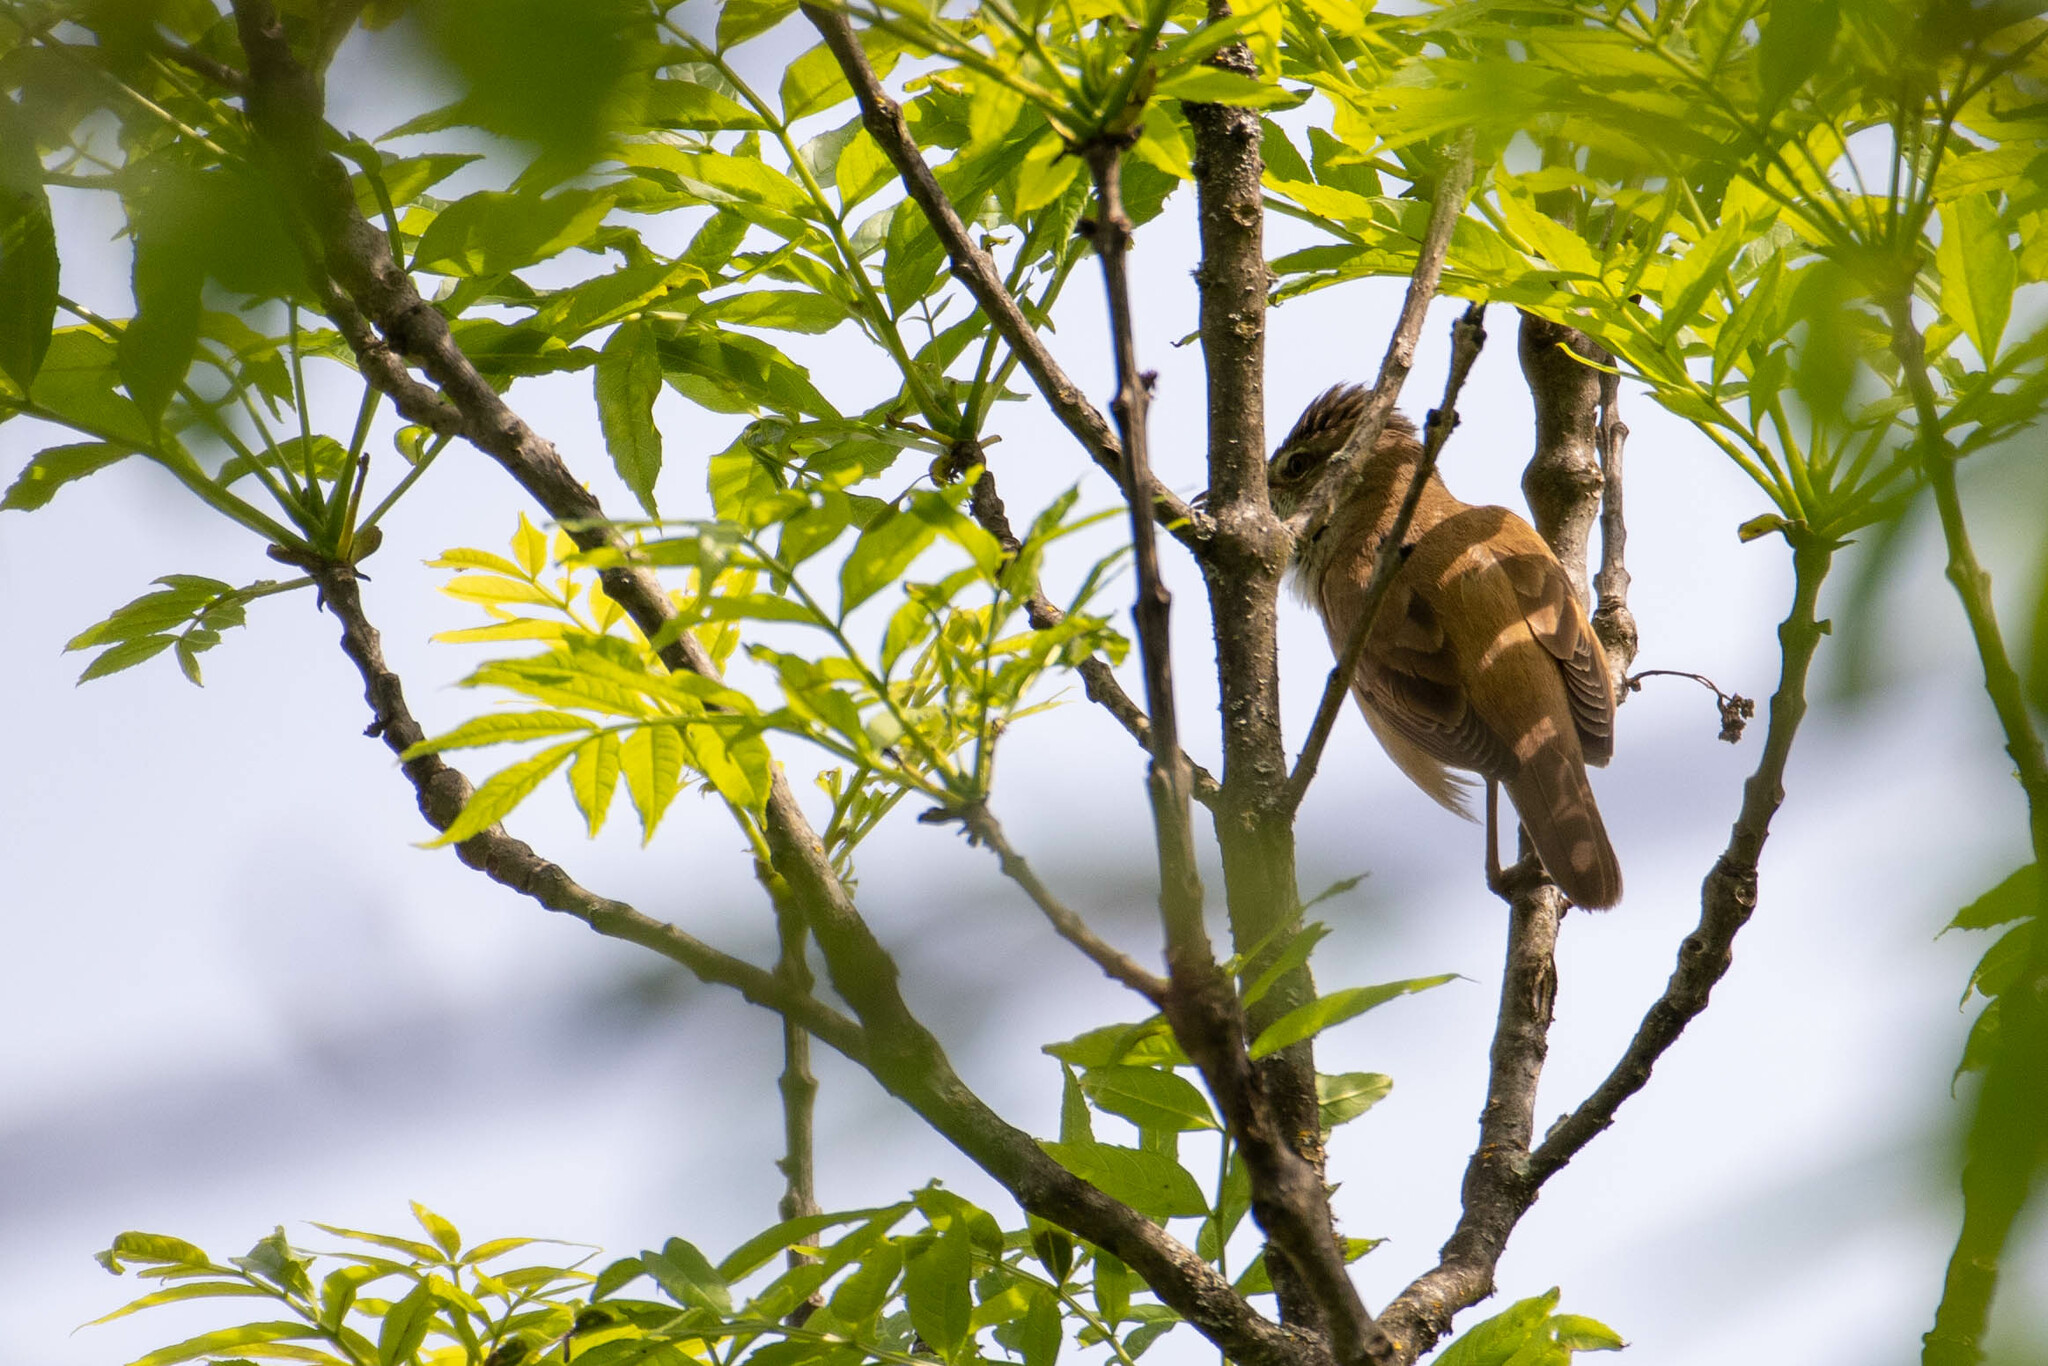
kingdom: Animalia
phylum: Chordata
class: Aves
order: Passeriformes
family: Acrocephalidae
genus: Acrocephalus
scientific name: Acrocephalus arundinaceus
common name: Great reed warbler
